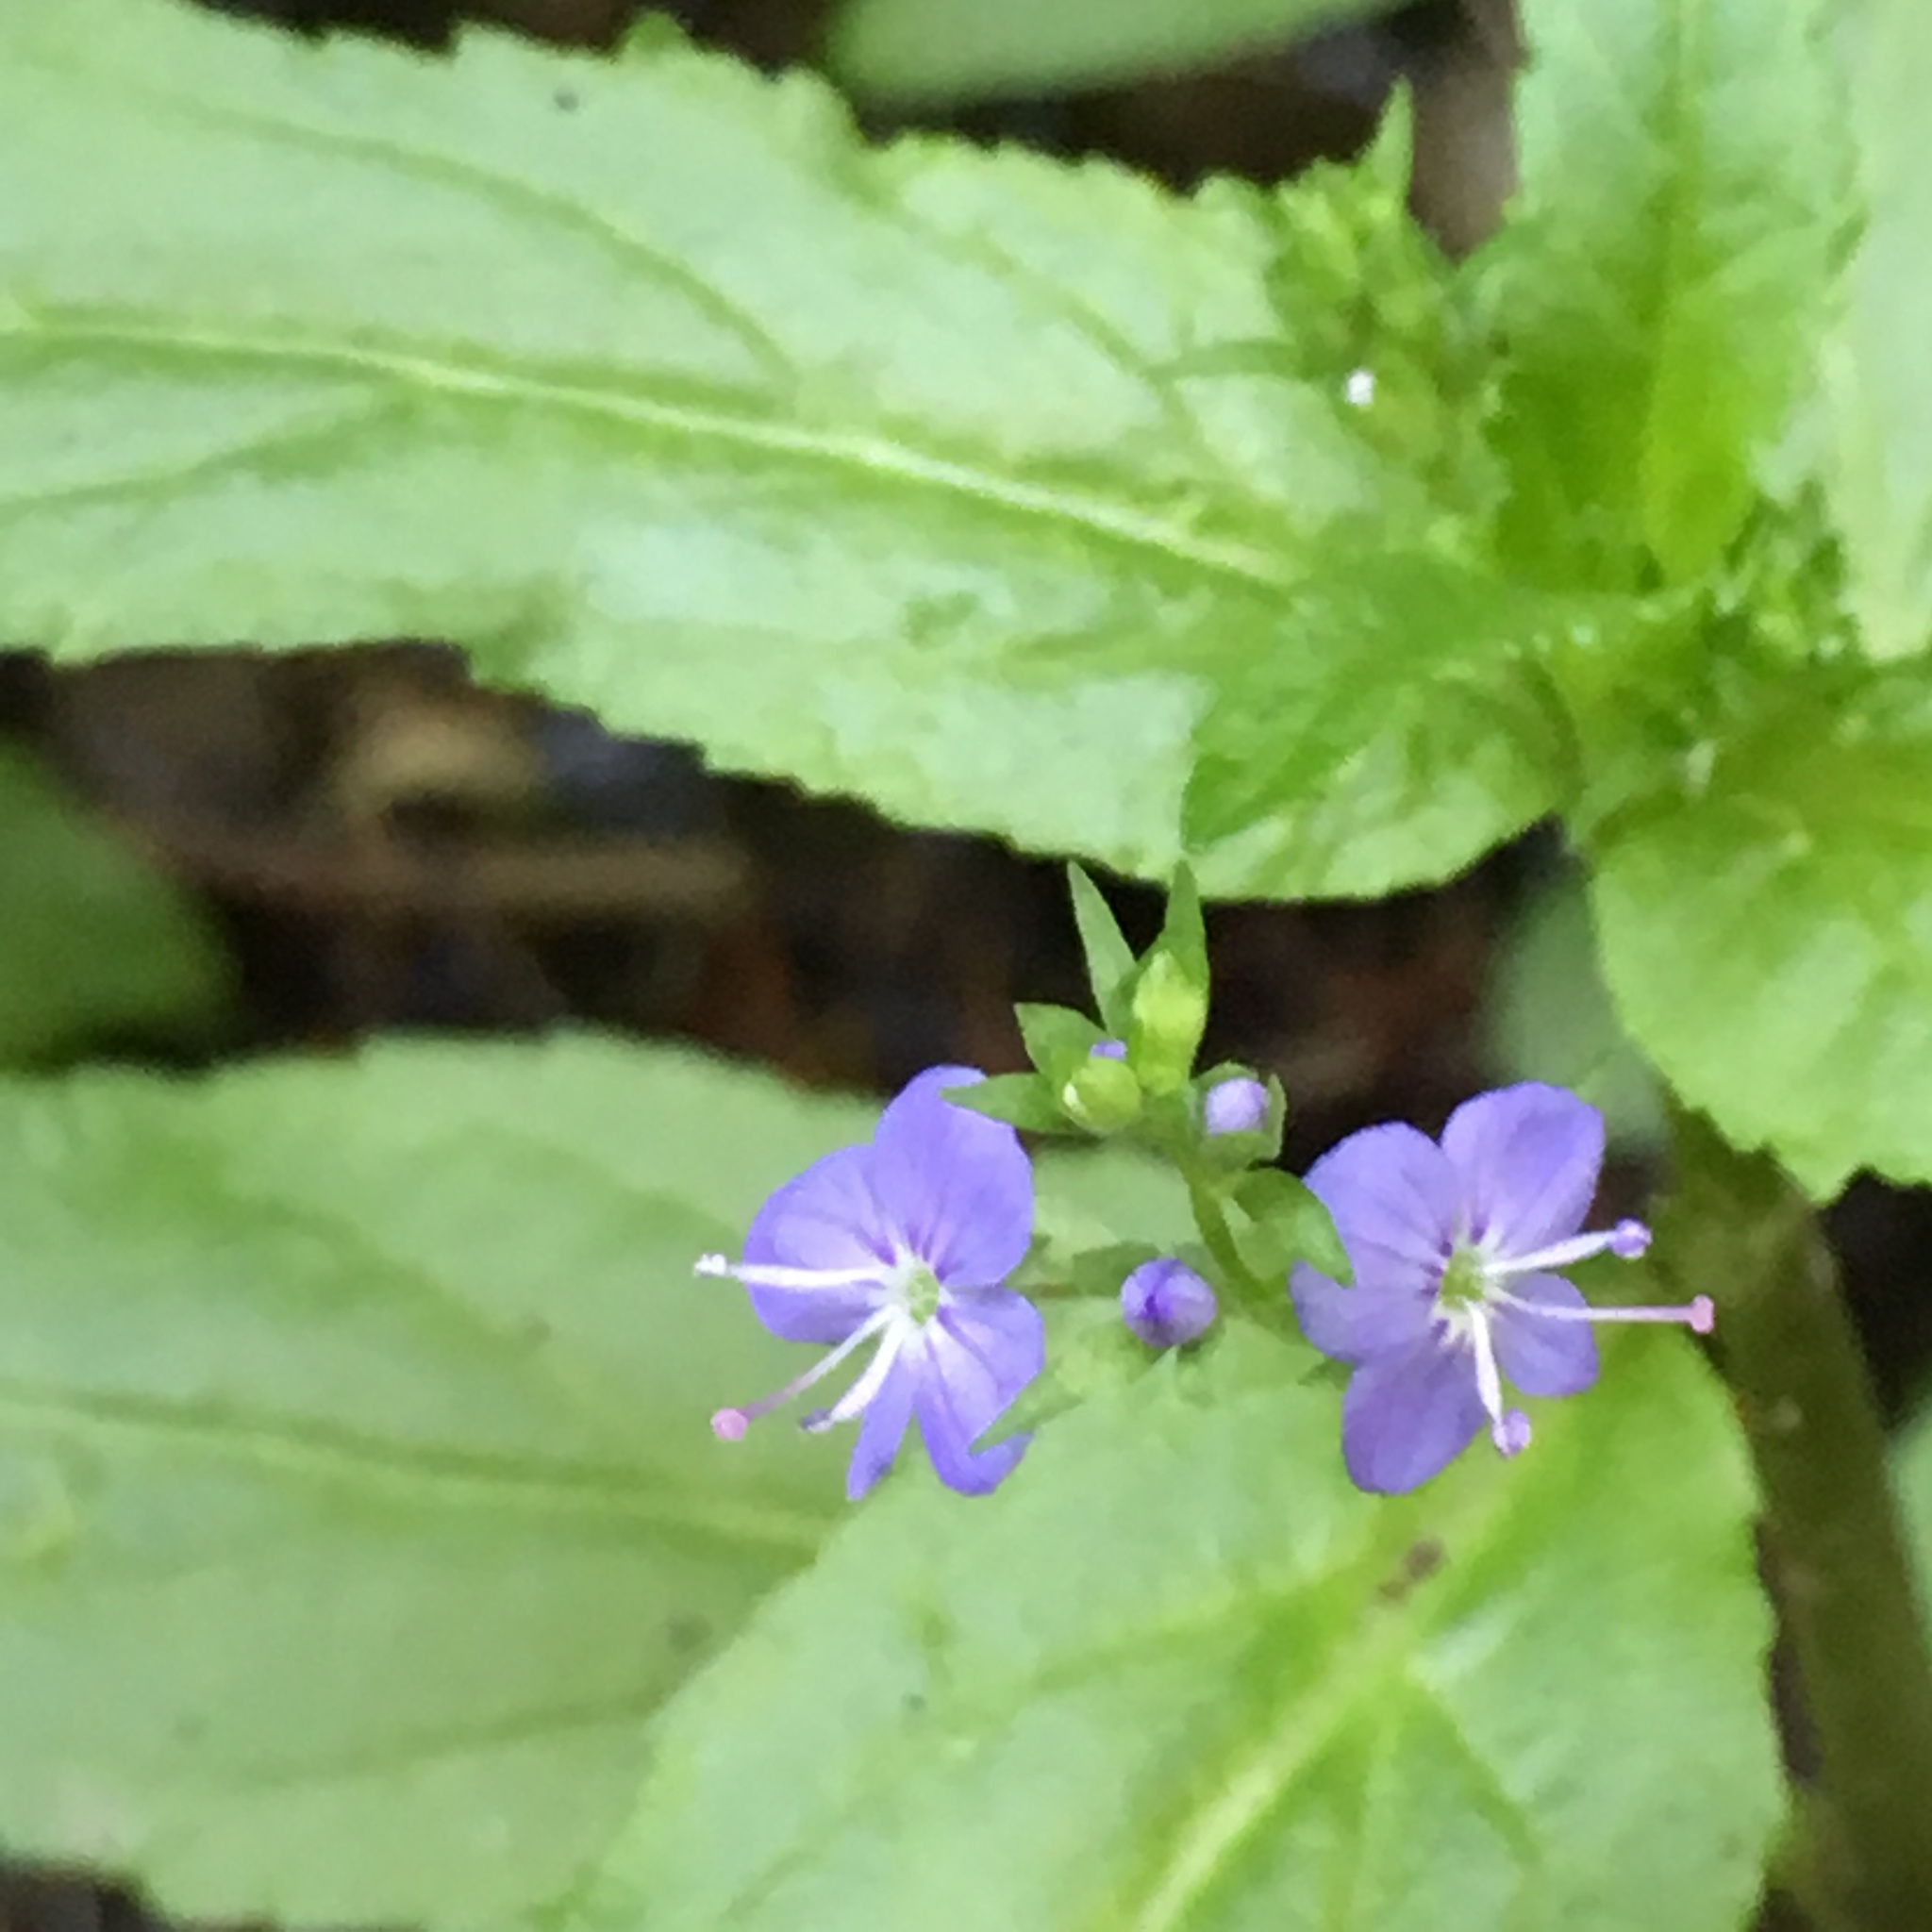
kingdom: Plantae
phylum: Tracheophyta
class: Magnoliopsida
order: Lamiales
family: Plantaginaceae
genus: Veronica
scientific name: Veronica americana
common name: American brooklime
